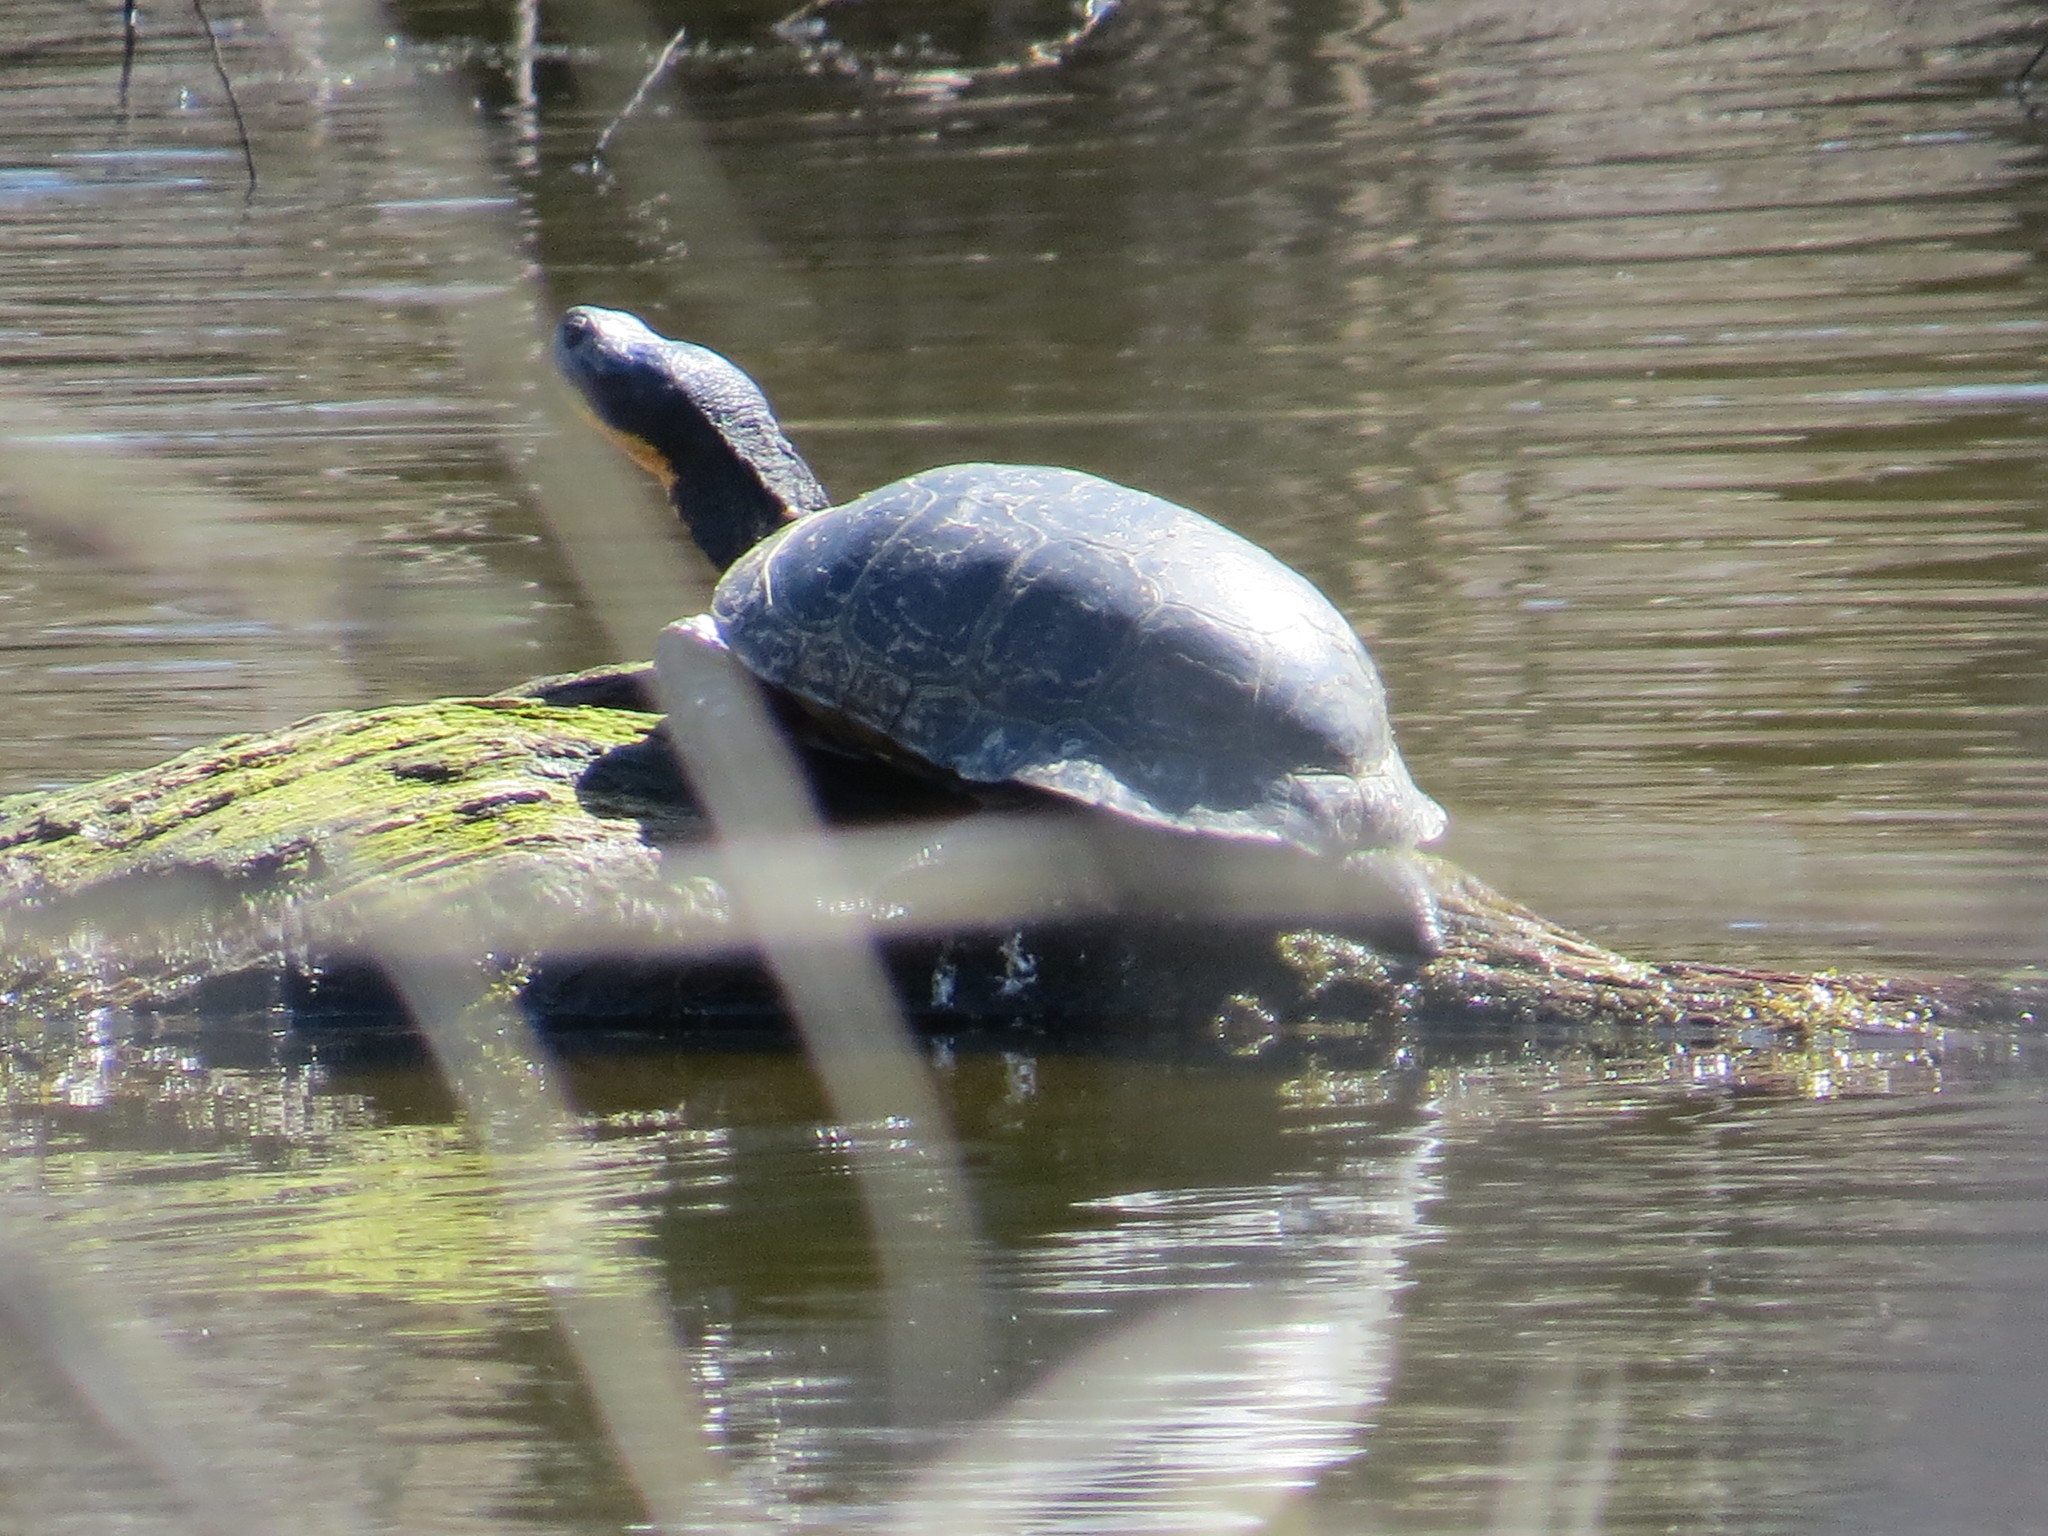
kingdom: Animalia
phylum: Chordata
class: Testudines
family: Emydidae
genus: Chrysemys
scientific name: Chrysemys picta
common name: Painted turtle
